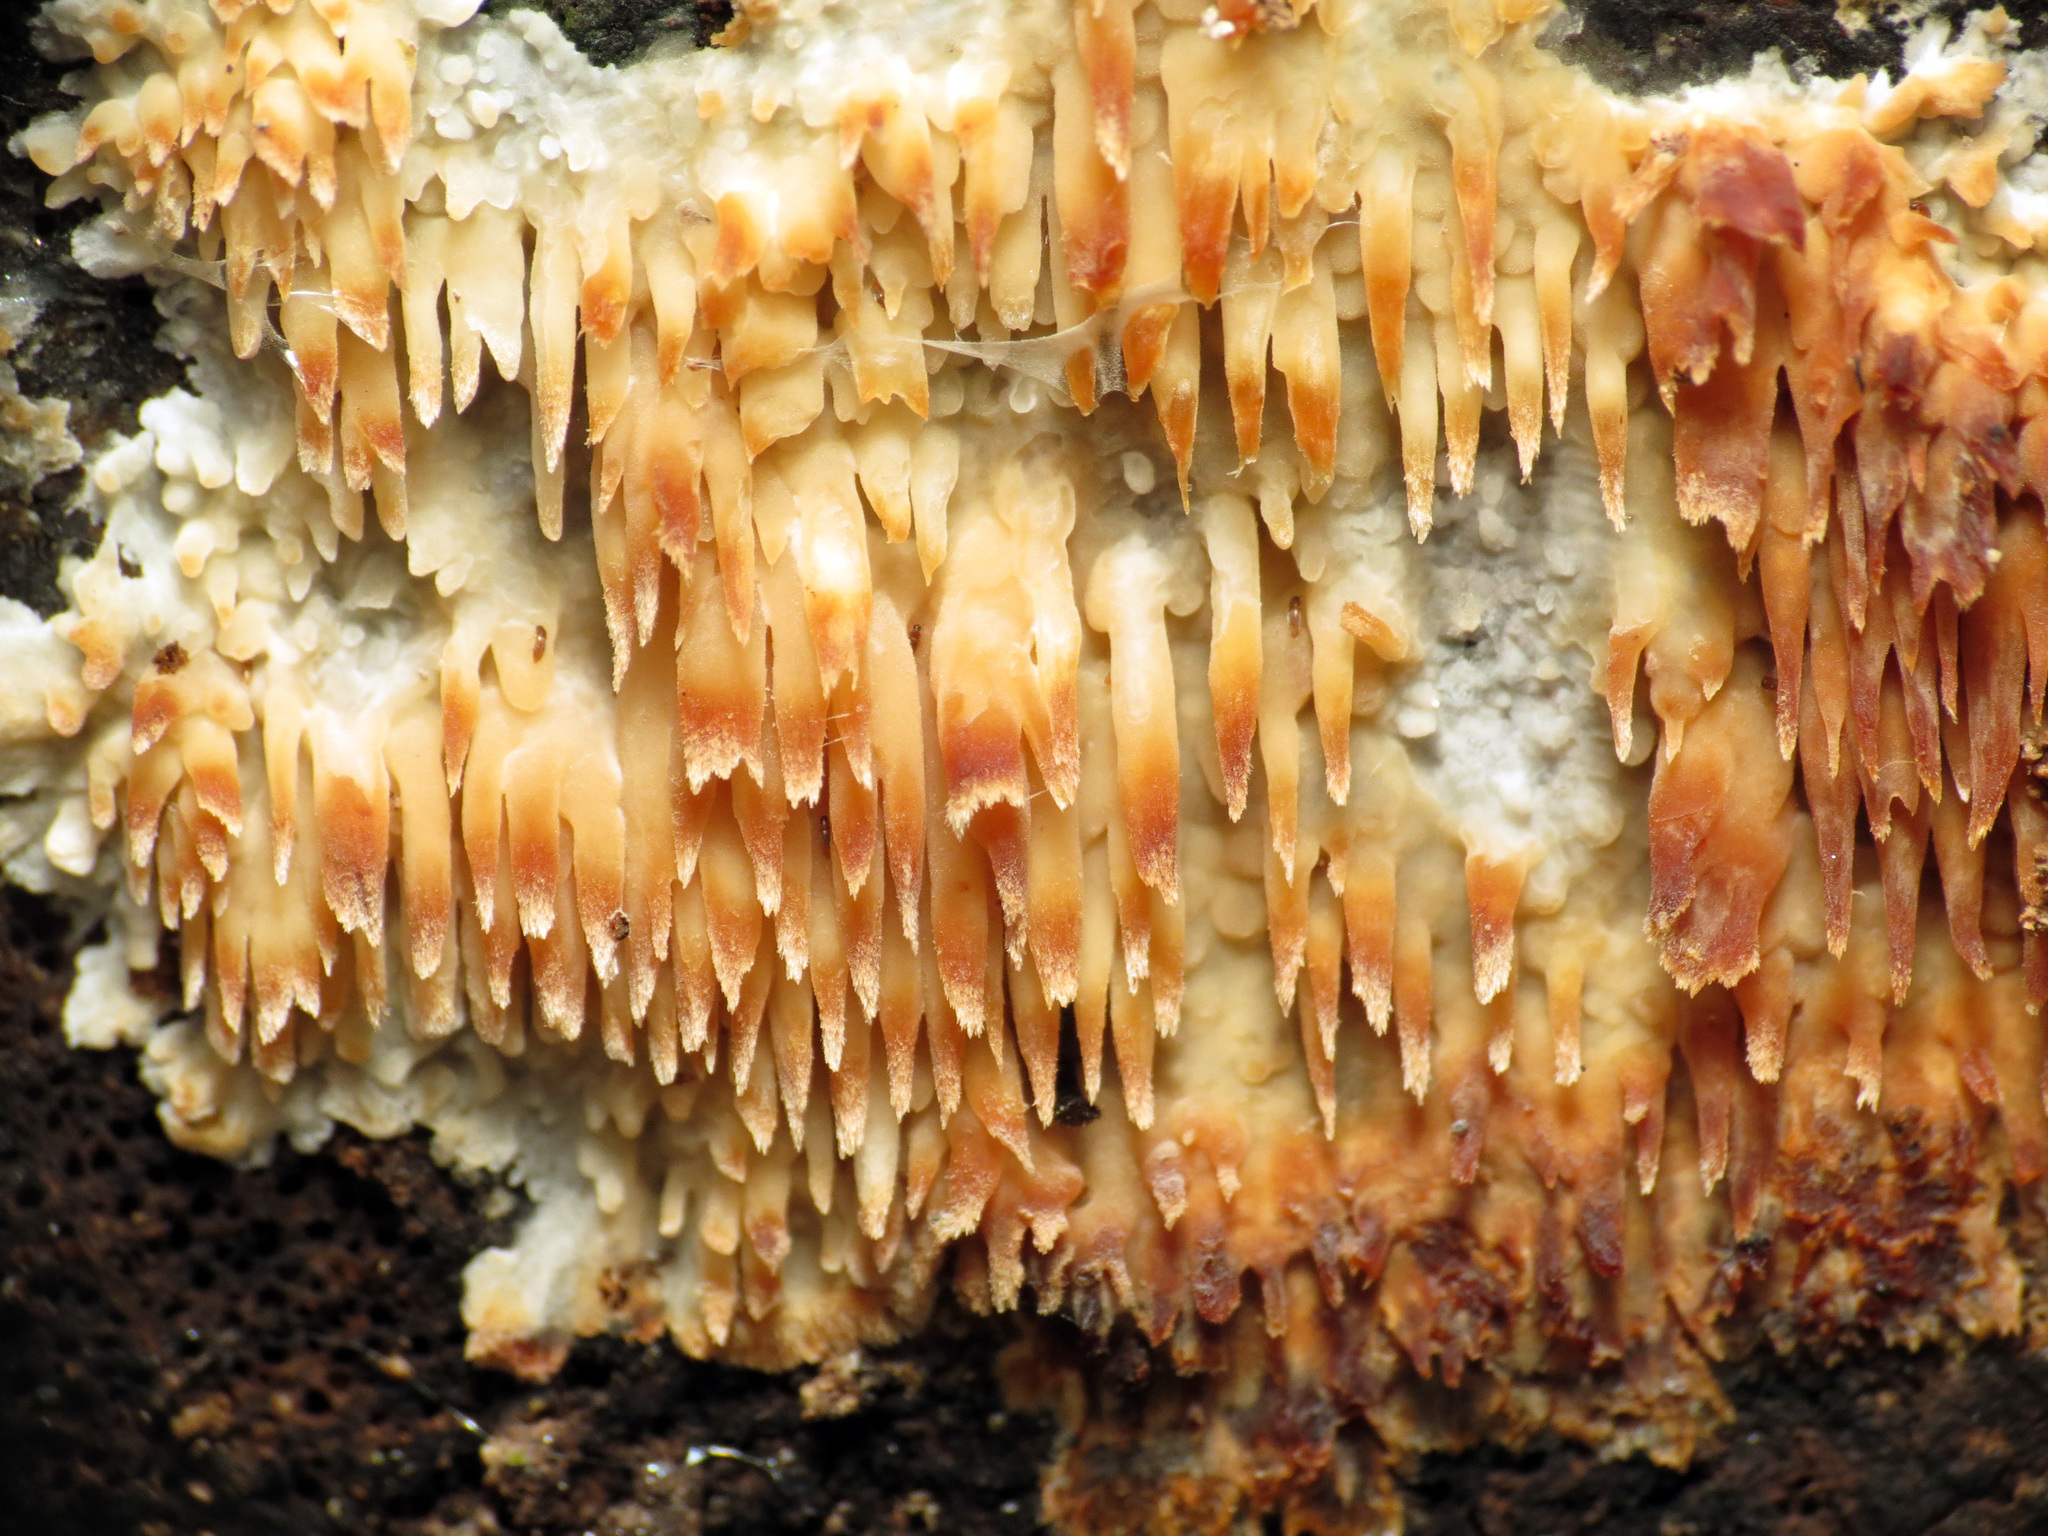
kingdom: Fungi
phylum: Basidiomycota
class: Agaricomycetes
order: Agaricales
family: Radulomycetaceae
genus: Radulomyces
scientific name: Radulomyces copelandii
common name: Asian beauty
